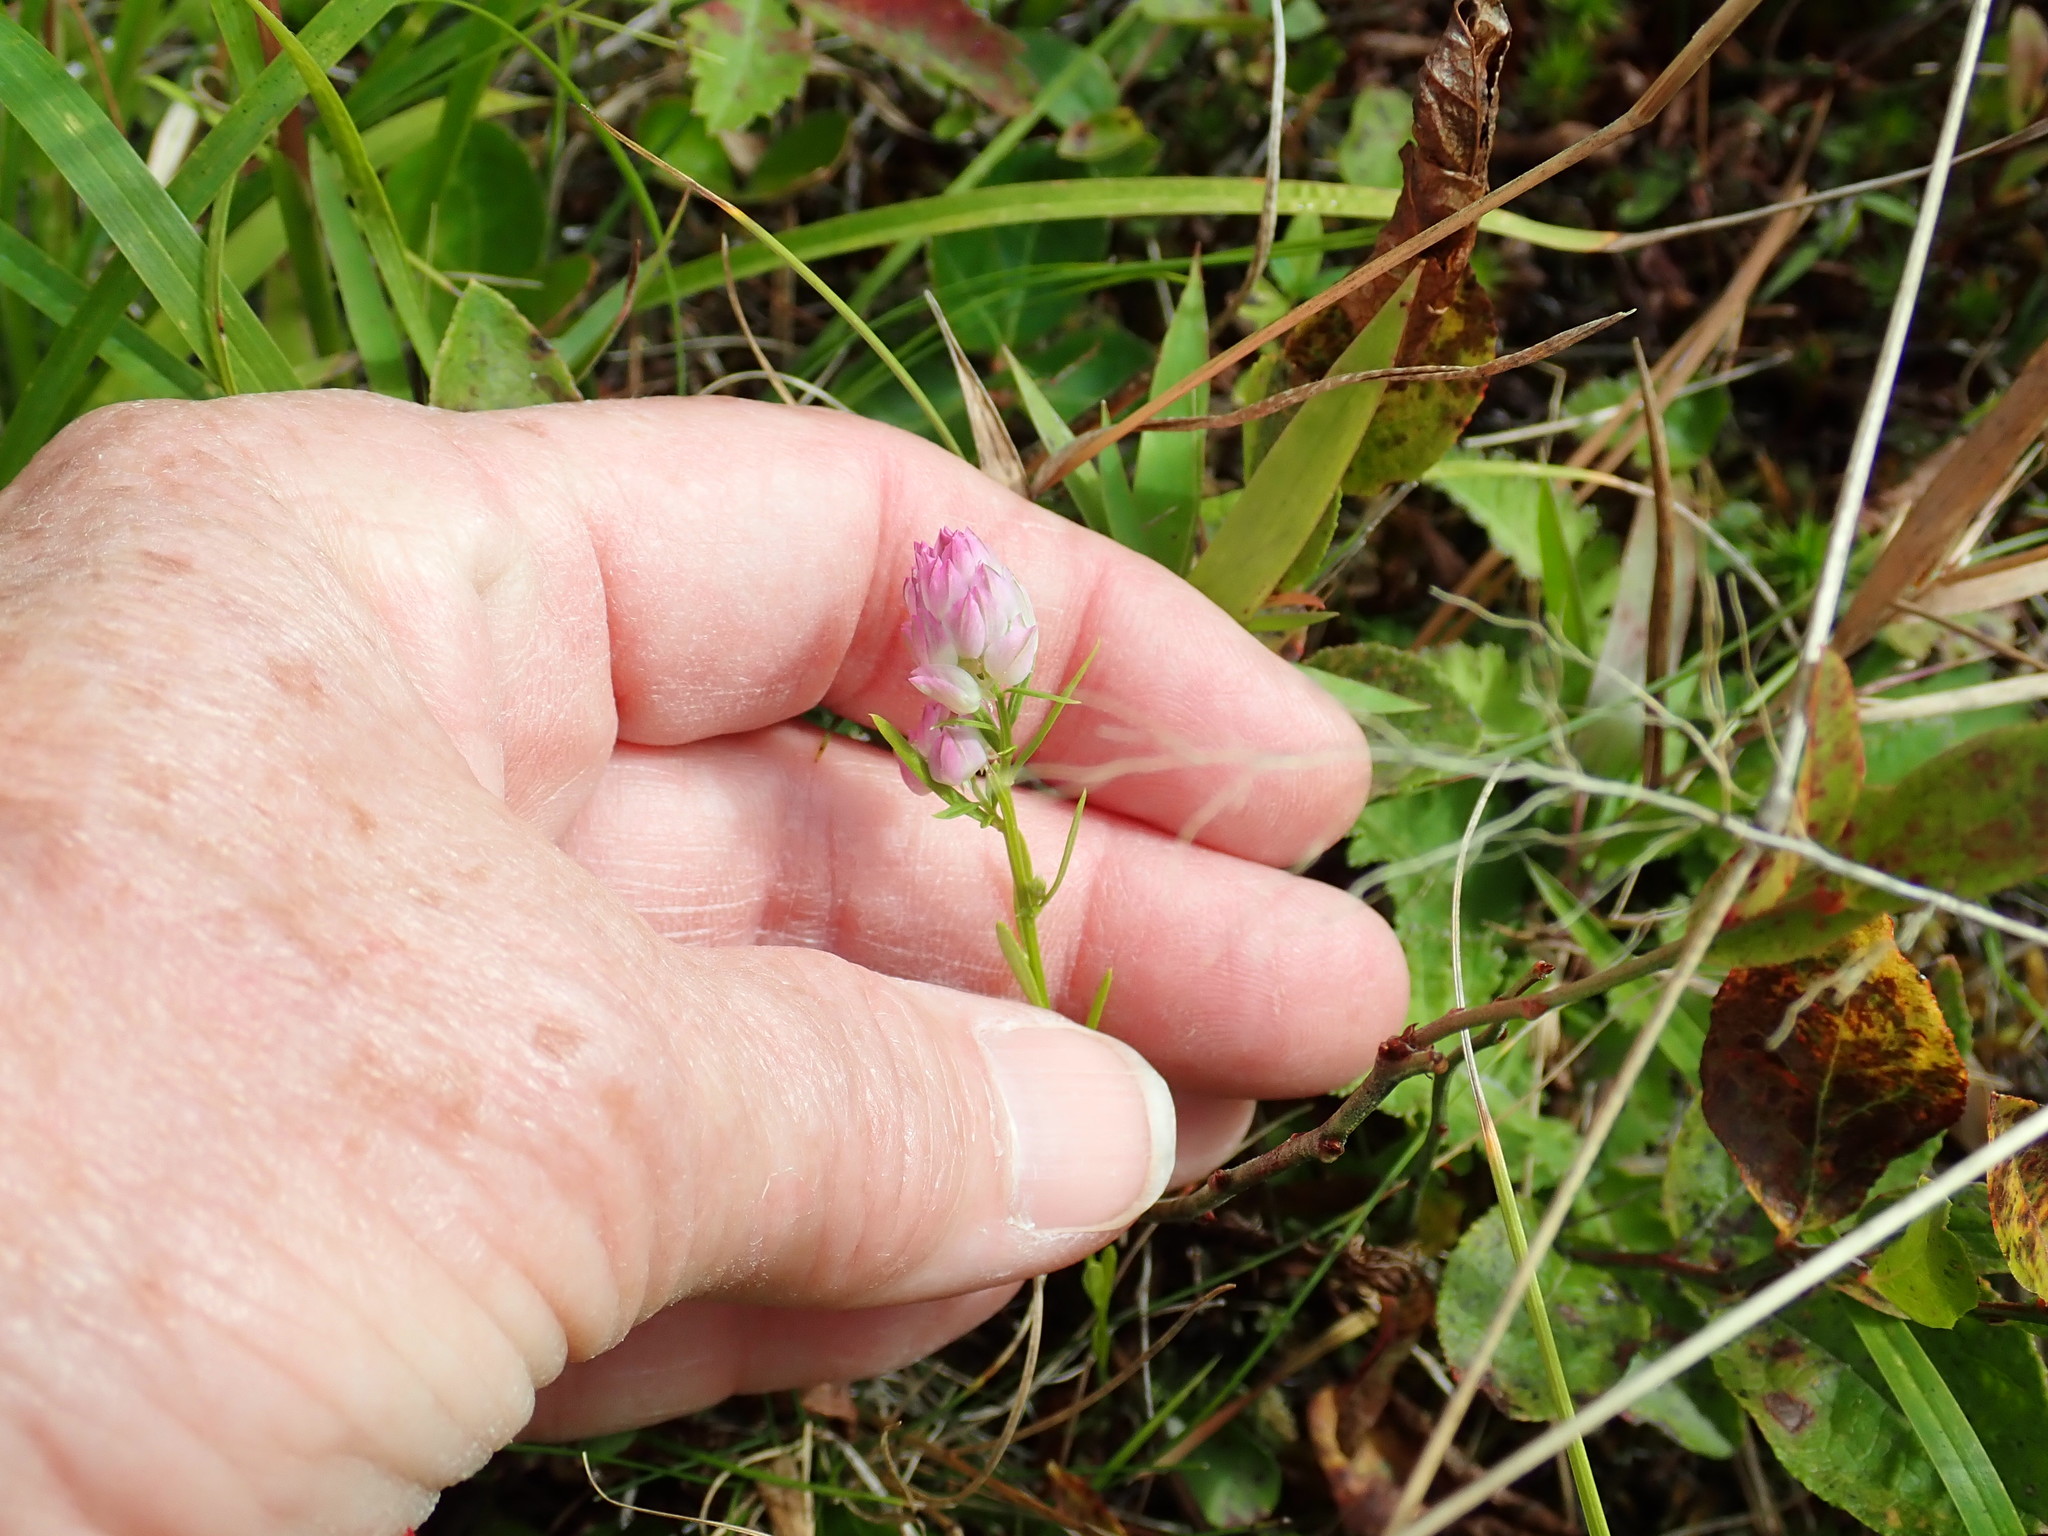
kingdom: Plantae
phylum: Tracheophyta
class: Magnoliopsida
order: Fabales
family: Polygalaceae
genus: Polygala
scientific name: Polygala sanguinea
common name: Blood milkwort
